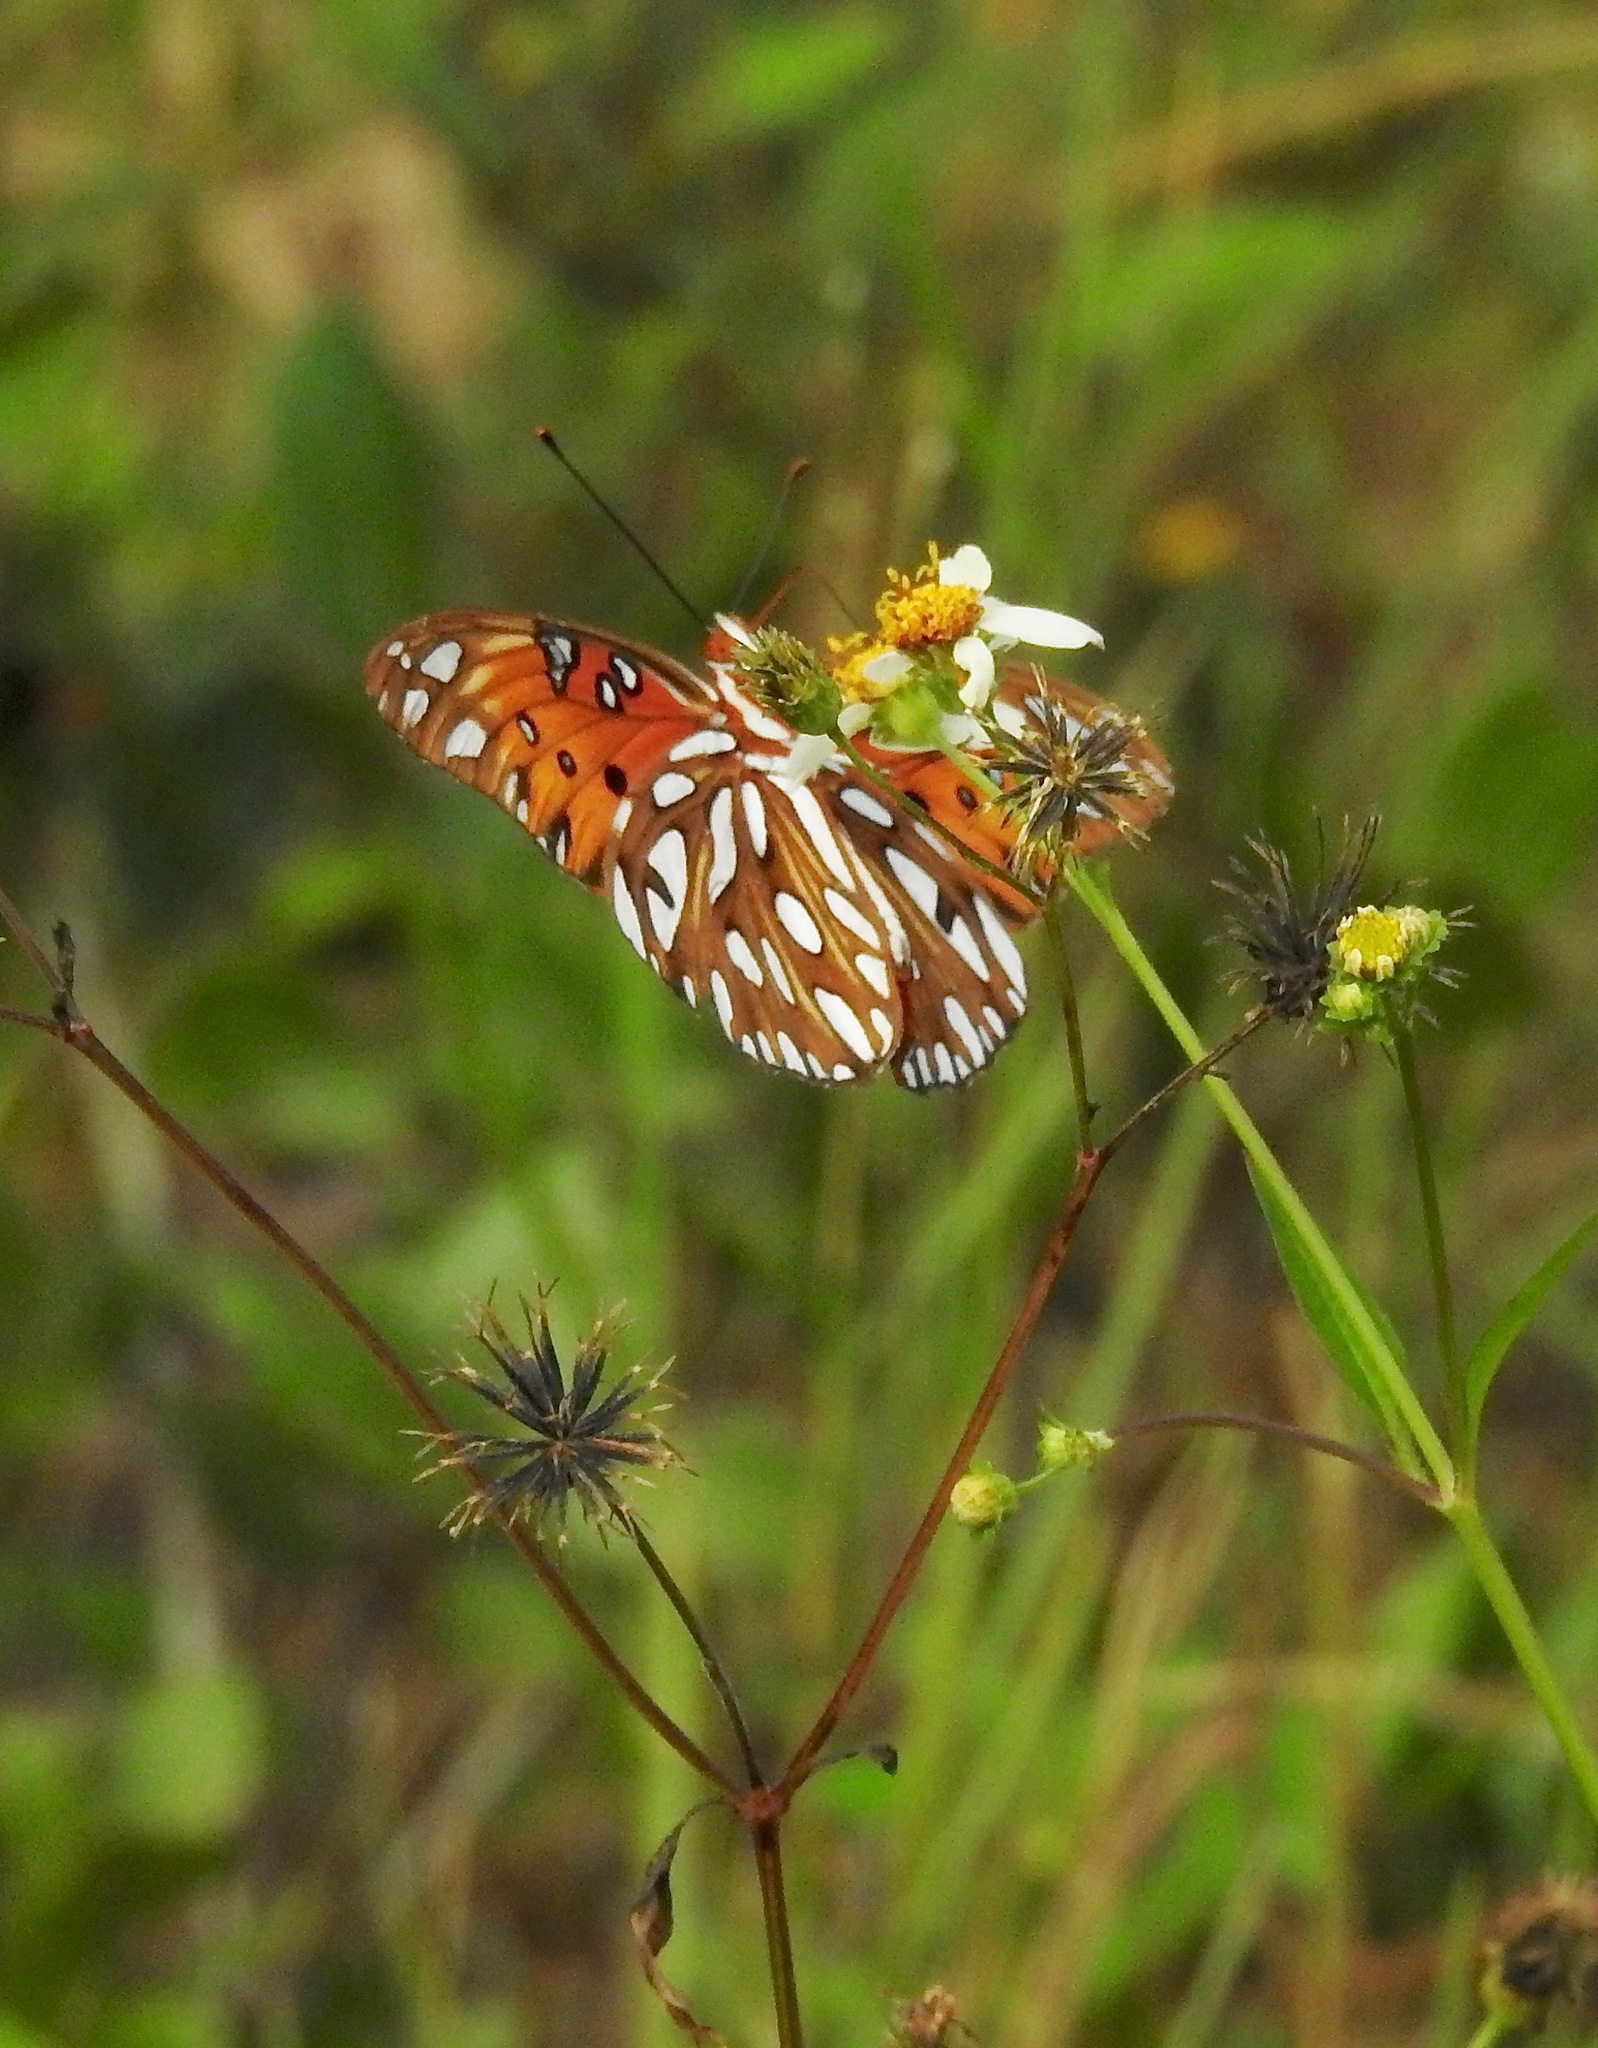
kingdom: Animalia
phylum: Arthropoda
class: Insecta
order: Lepidoptera
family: Nymphalidae
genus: Dione
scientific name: Dione vanillae
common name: Gulf fritillary
